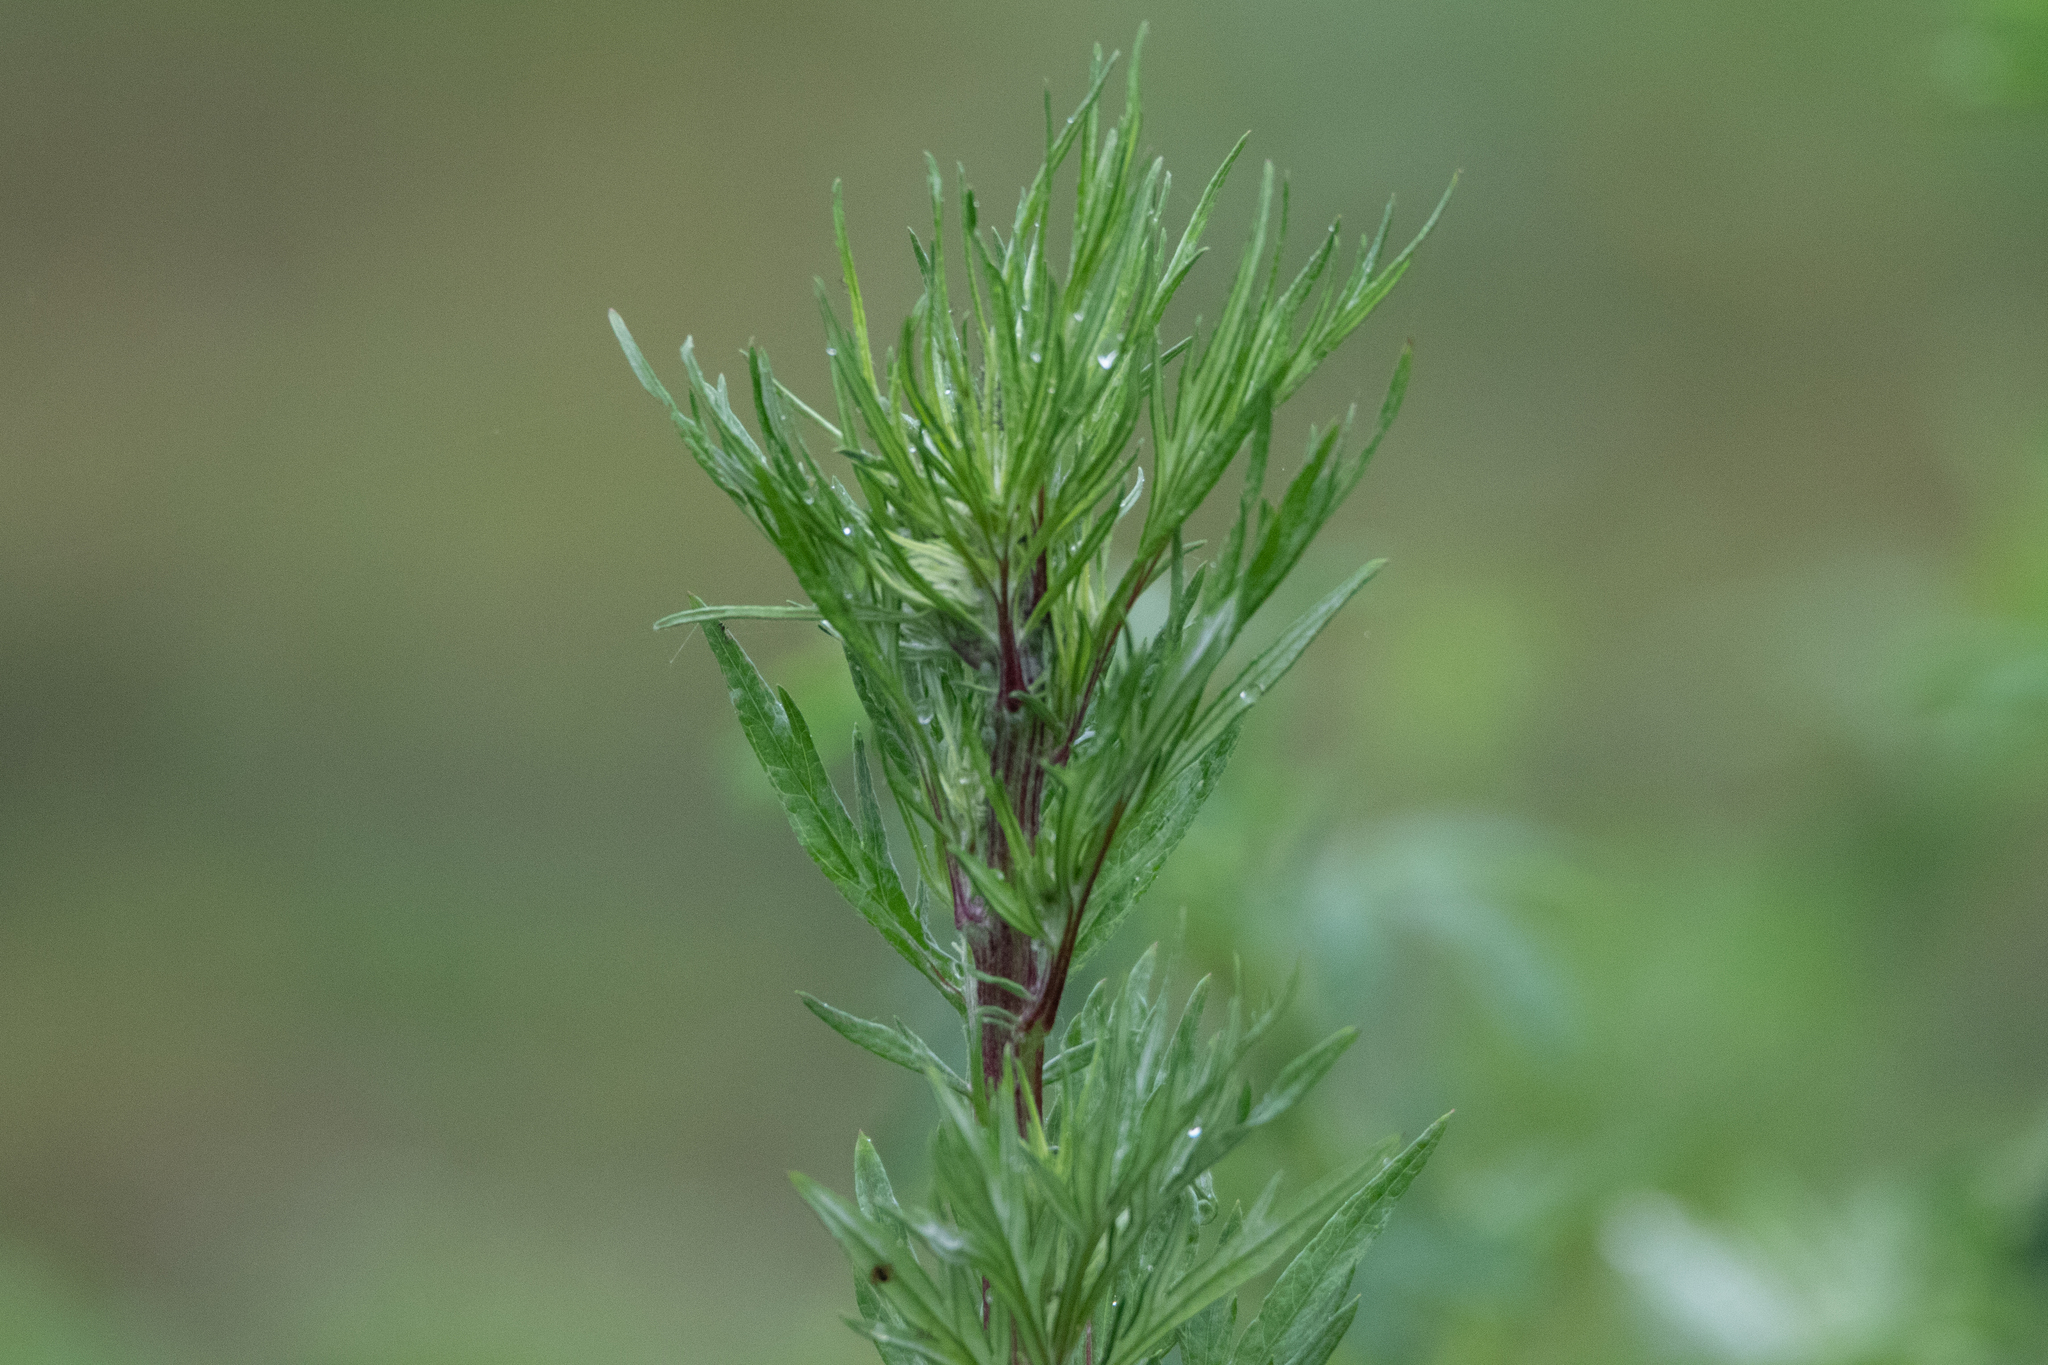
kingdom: Plantae
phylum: Tracheophyta
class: Magnoliopsida
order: Asterales
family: Asteraceae
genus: Artemisia
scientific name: Artemisia vulgaris
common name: Mugwort
